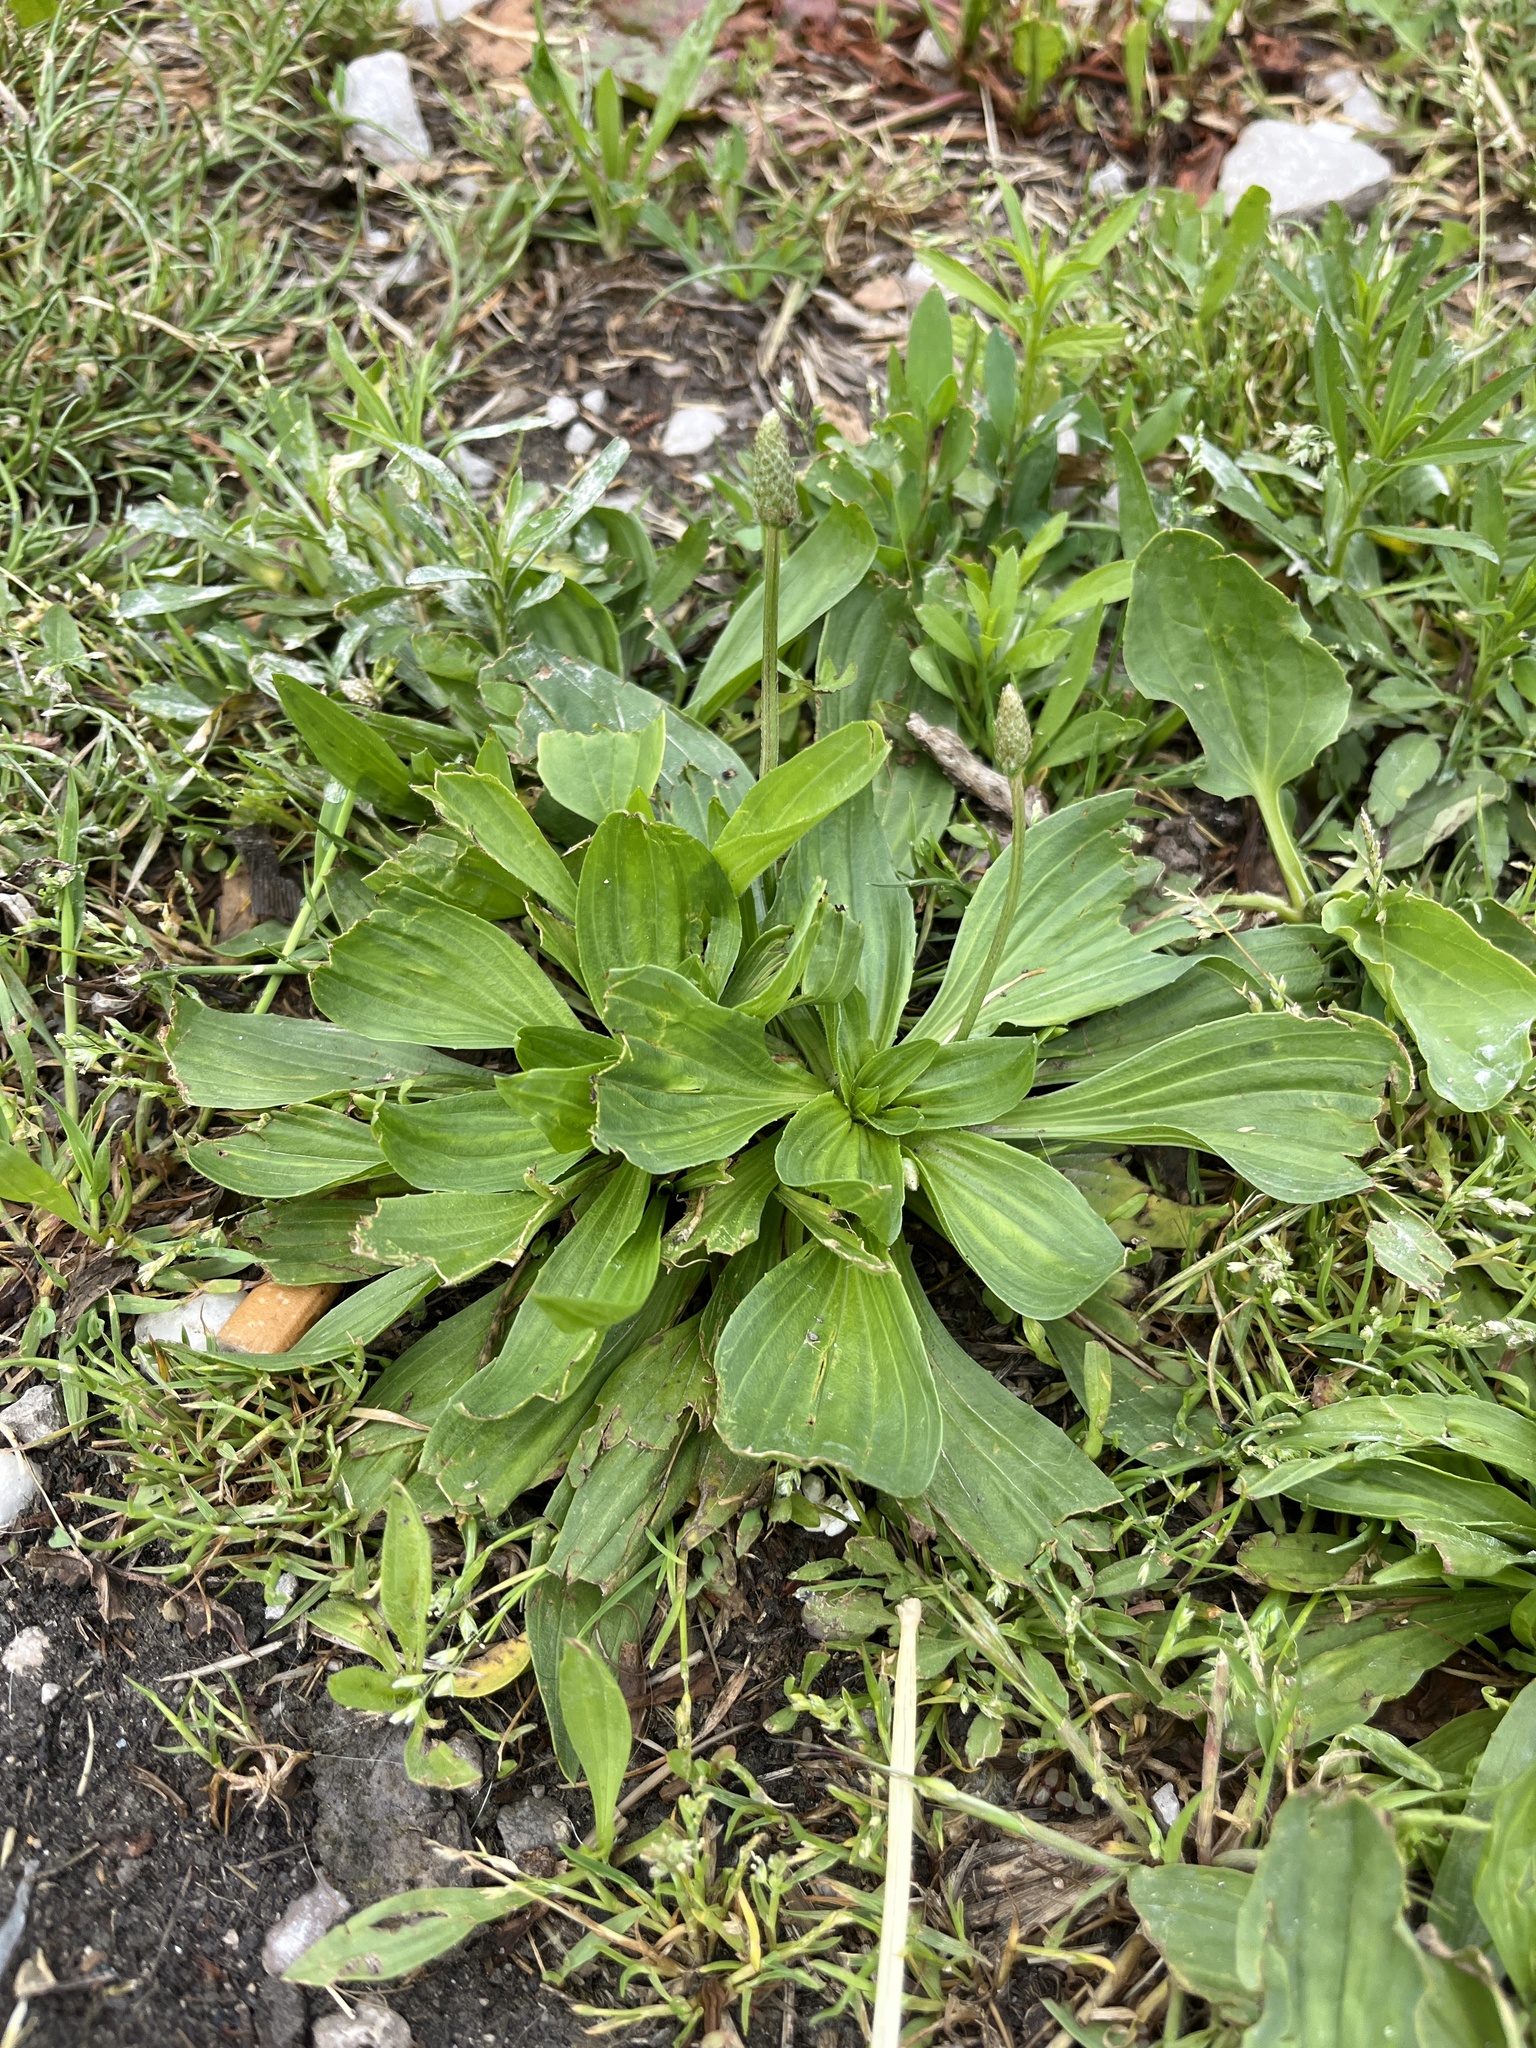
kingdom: Plantae
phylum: Tracheophyta
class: Magnoliopsida
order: Lamiales
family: Plantaginaceae
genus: Plantago
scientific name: Plantago lanceolata
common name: Ribwort plantain
